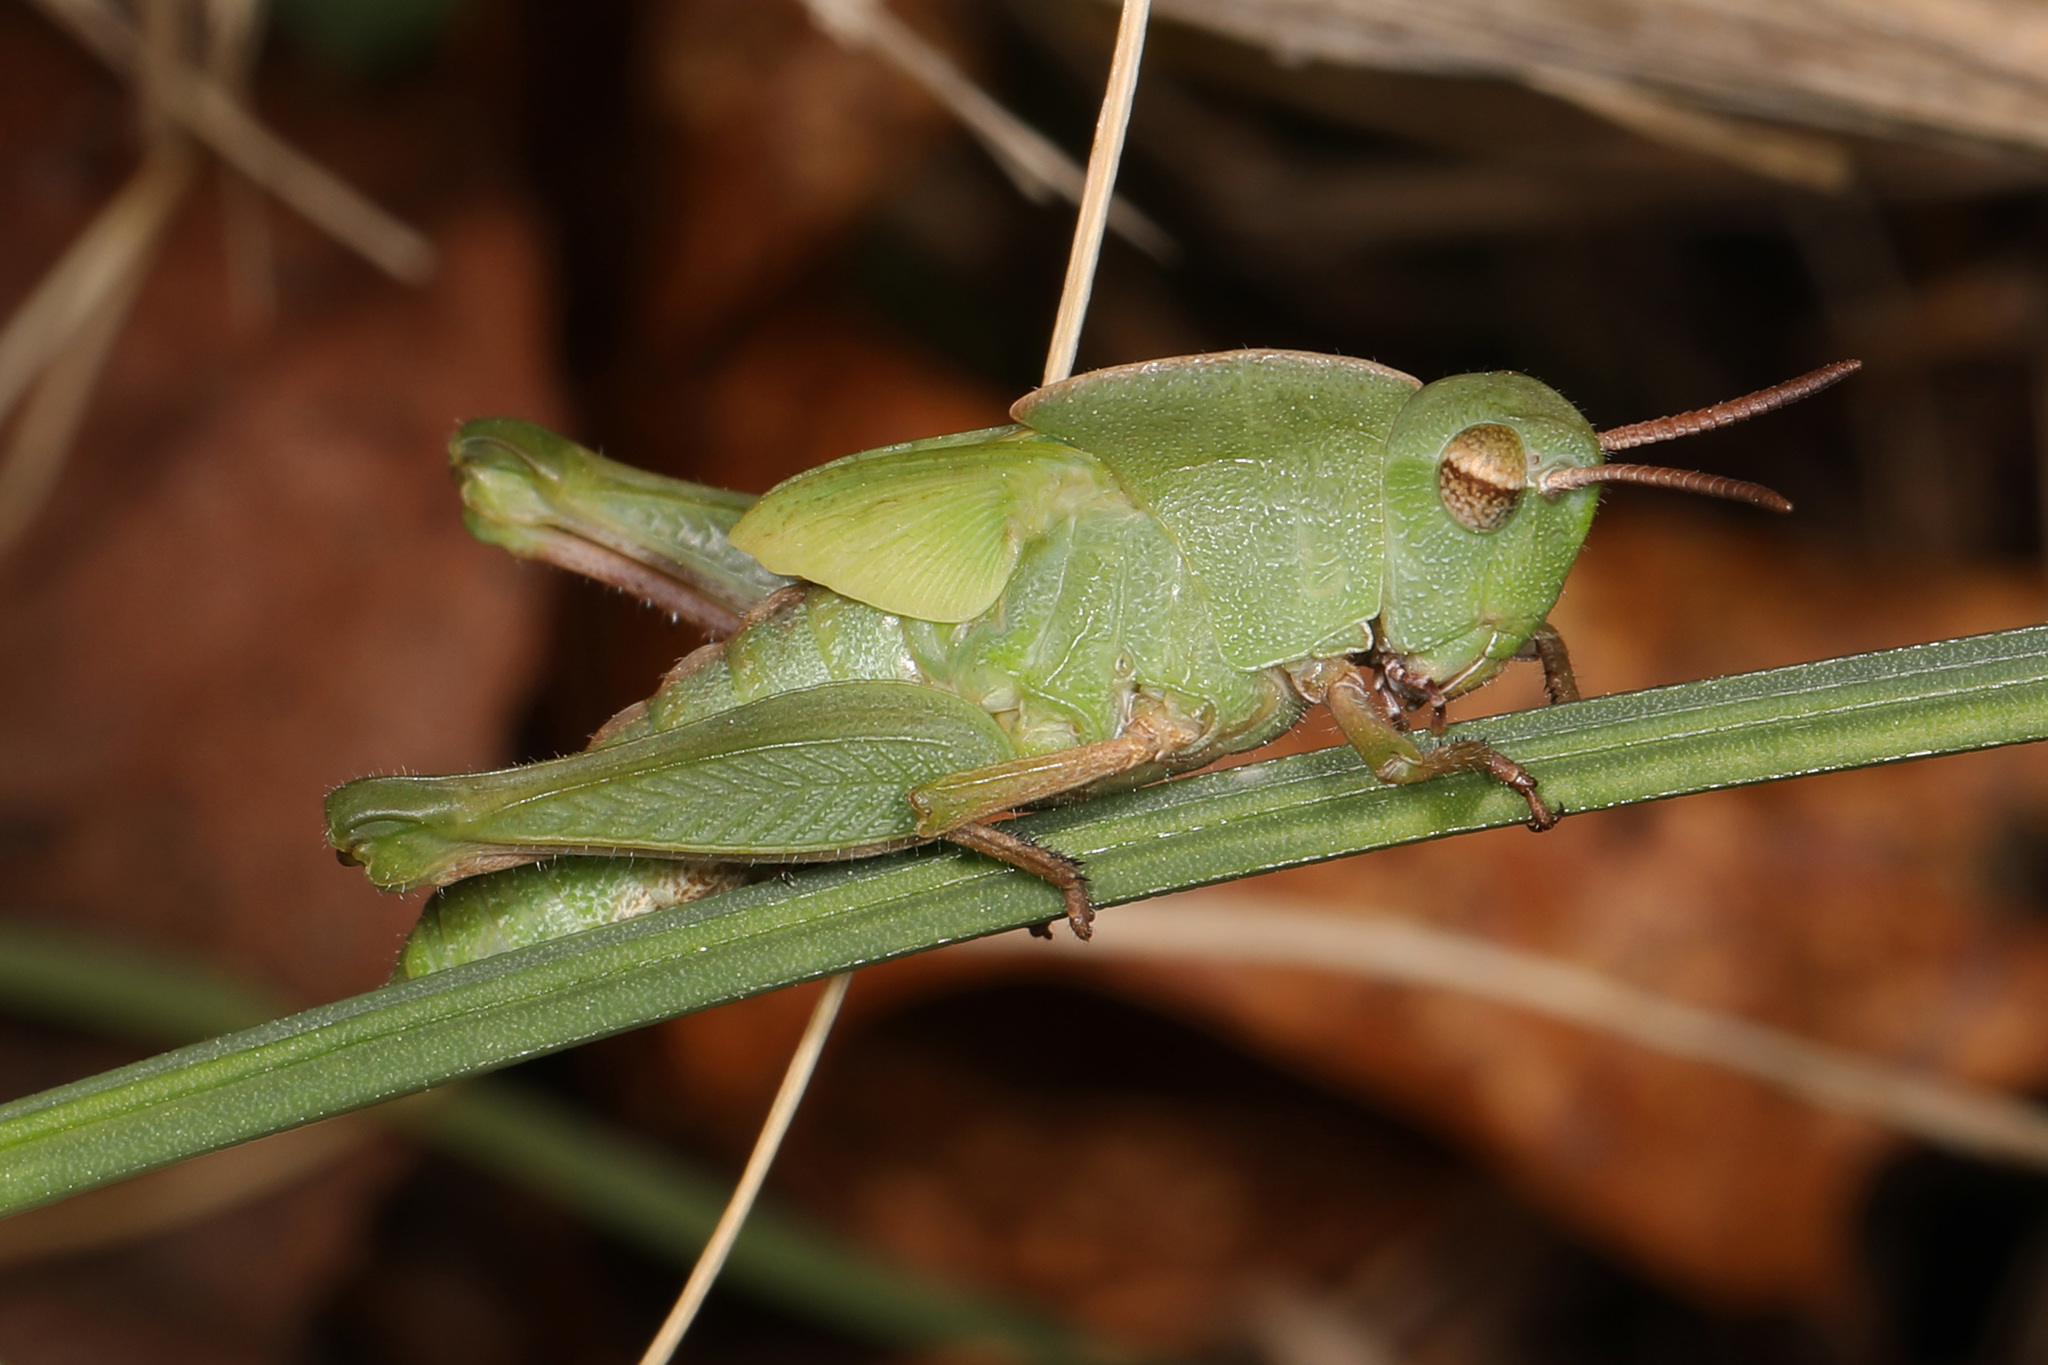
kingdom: Animalia
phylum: Arthropoda
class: Insecta
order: Orthoptera
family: Acrididae
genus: Chortophaga
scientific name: Chortophaga viridifasciata
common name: Green-striped grasshopper
